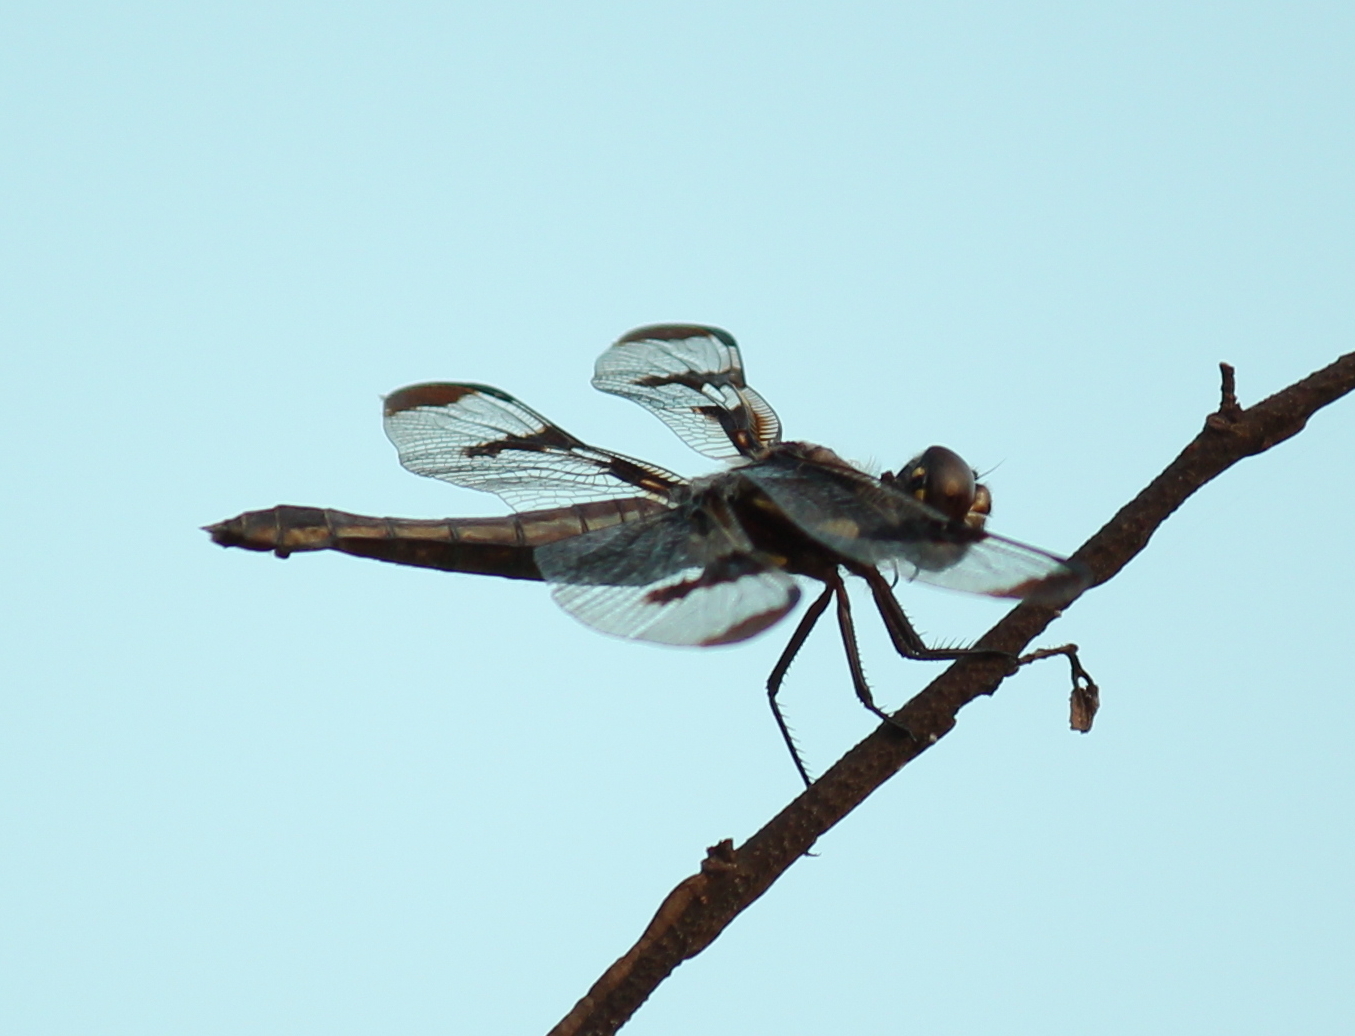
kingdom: Animalia
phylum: Arthropoda
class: Insecta
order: Odonata
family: Libellulidae
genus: Libellula
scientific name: Libellula pulchella
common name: Twelve-spotted skimmer
